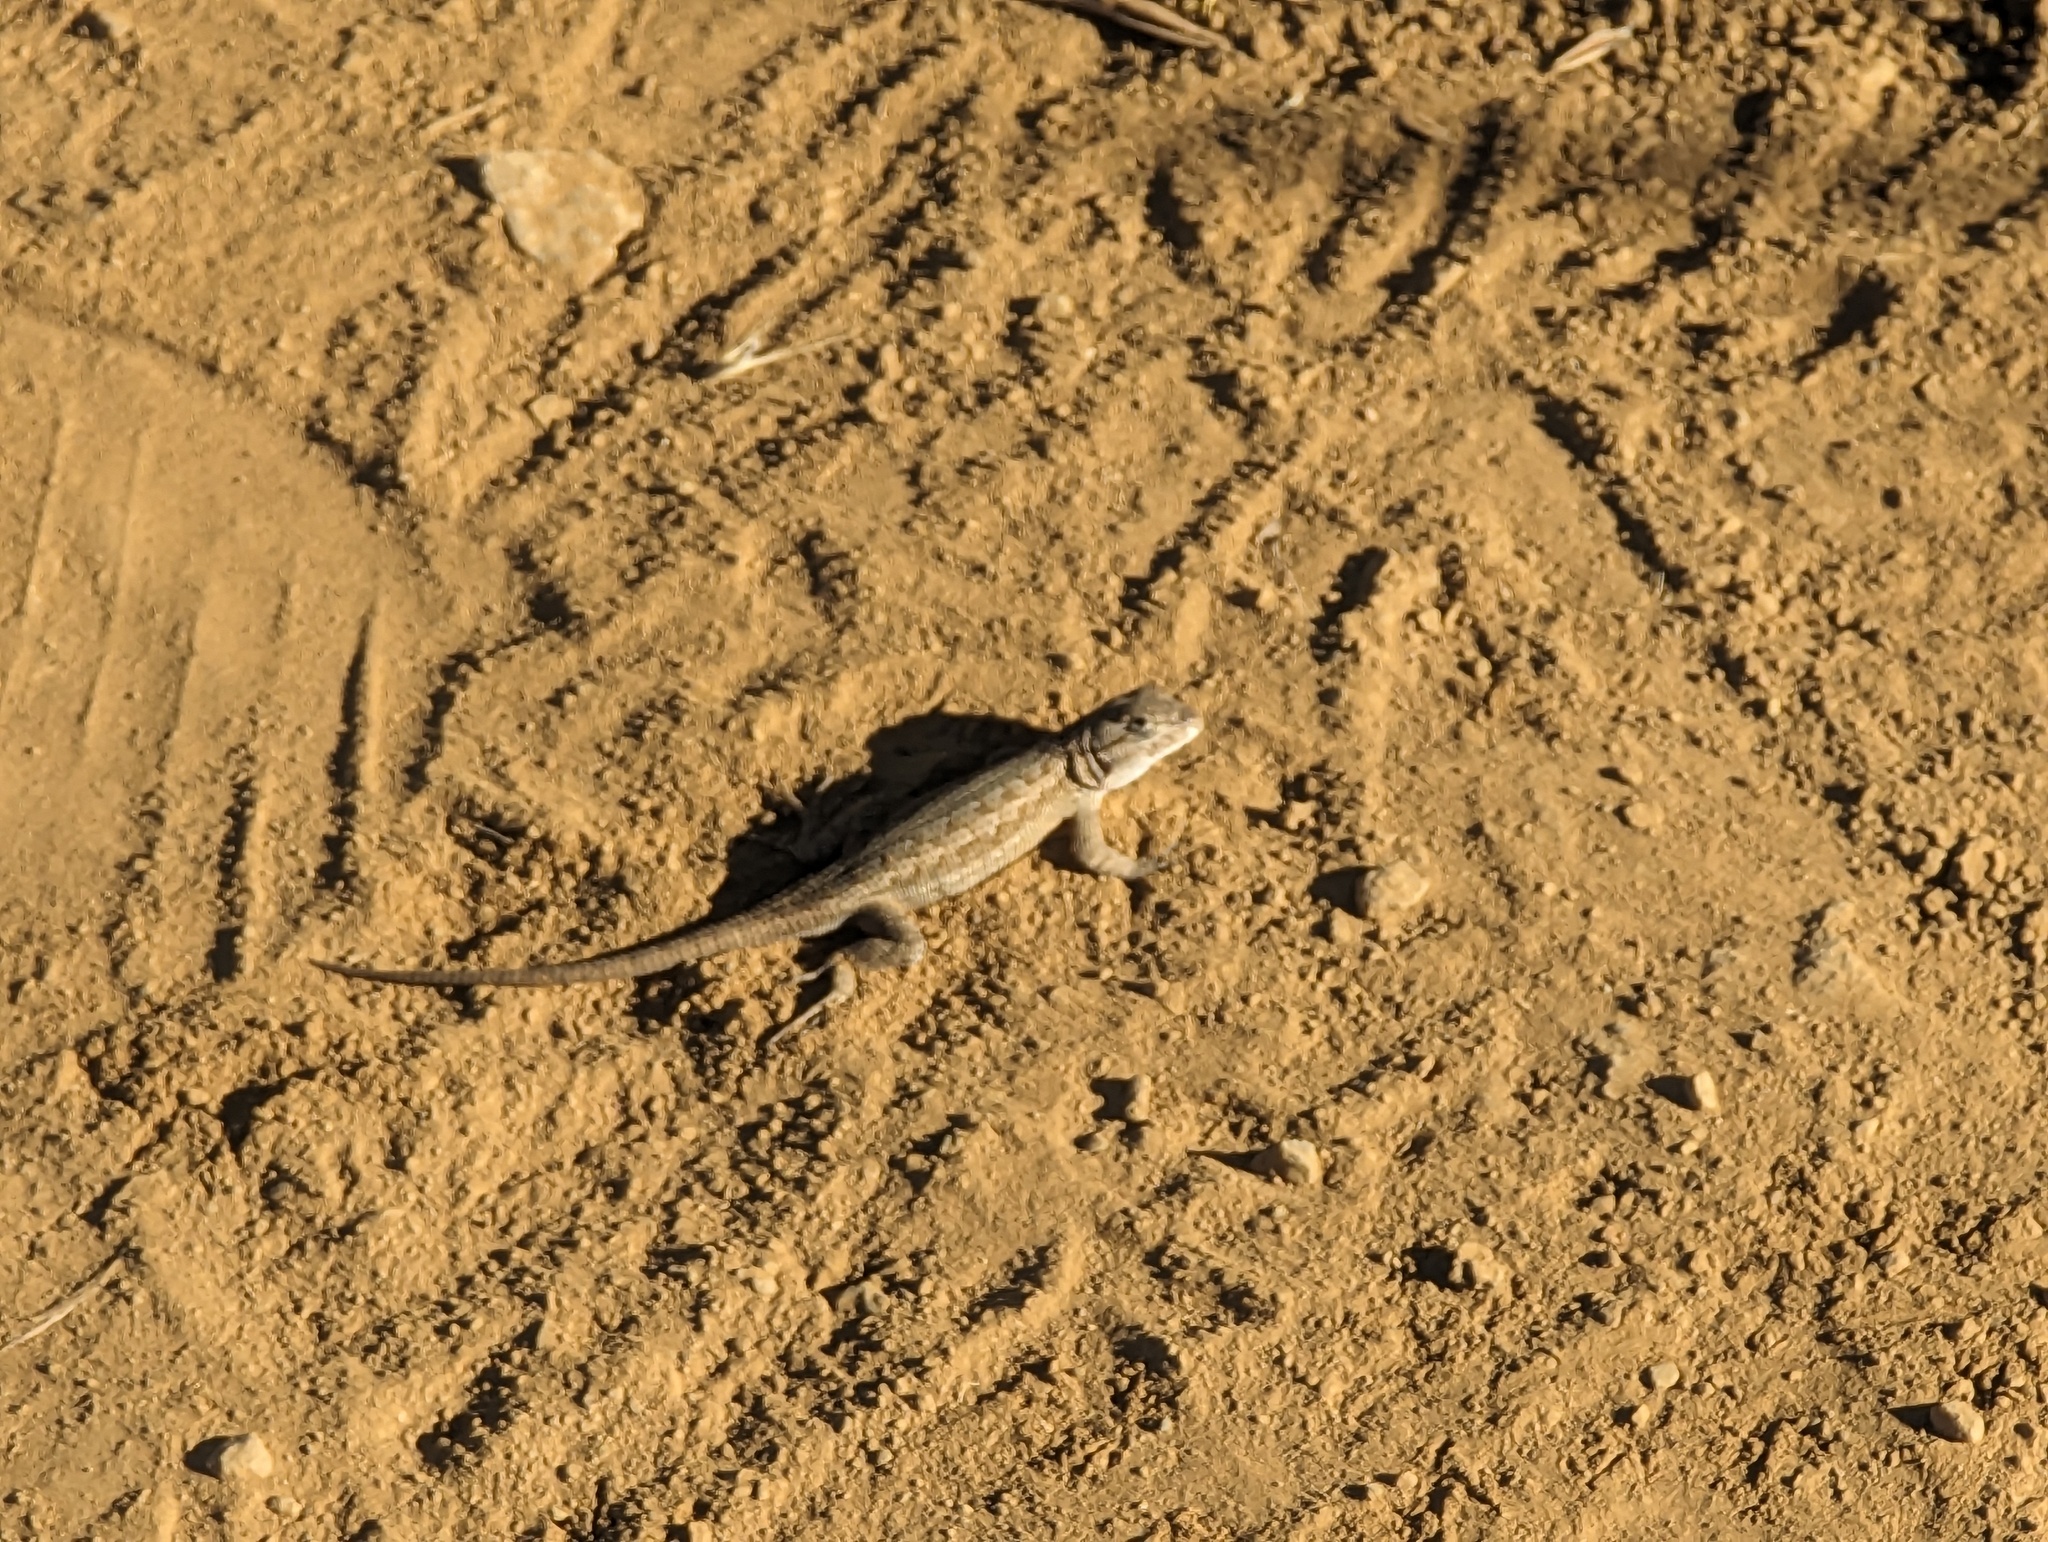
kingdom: Animalia
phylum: Chordata
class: Squamata
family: Phrynosomatidae
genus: Sceloporus
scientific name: Sceloporus occidentalis
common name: Western fence lizard
